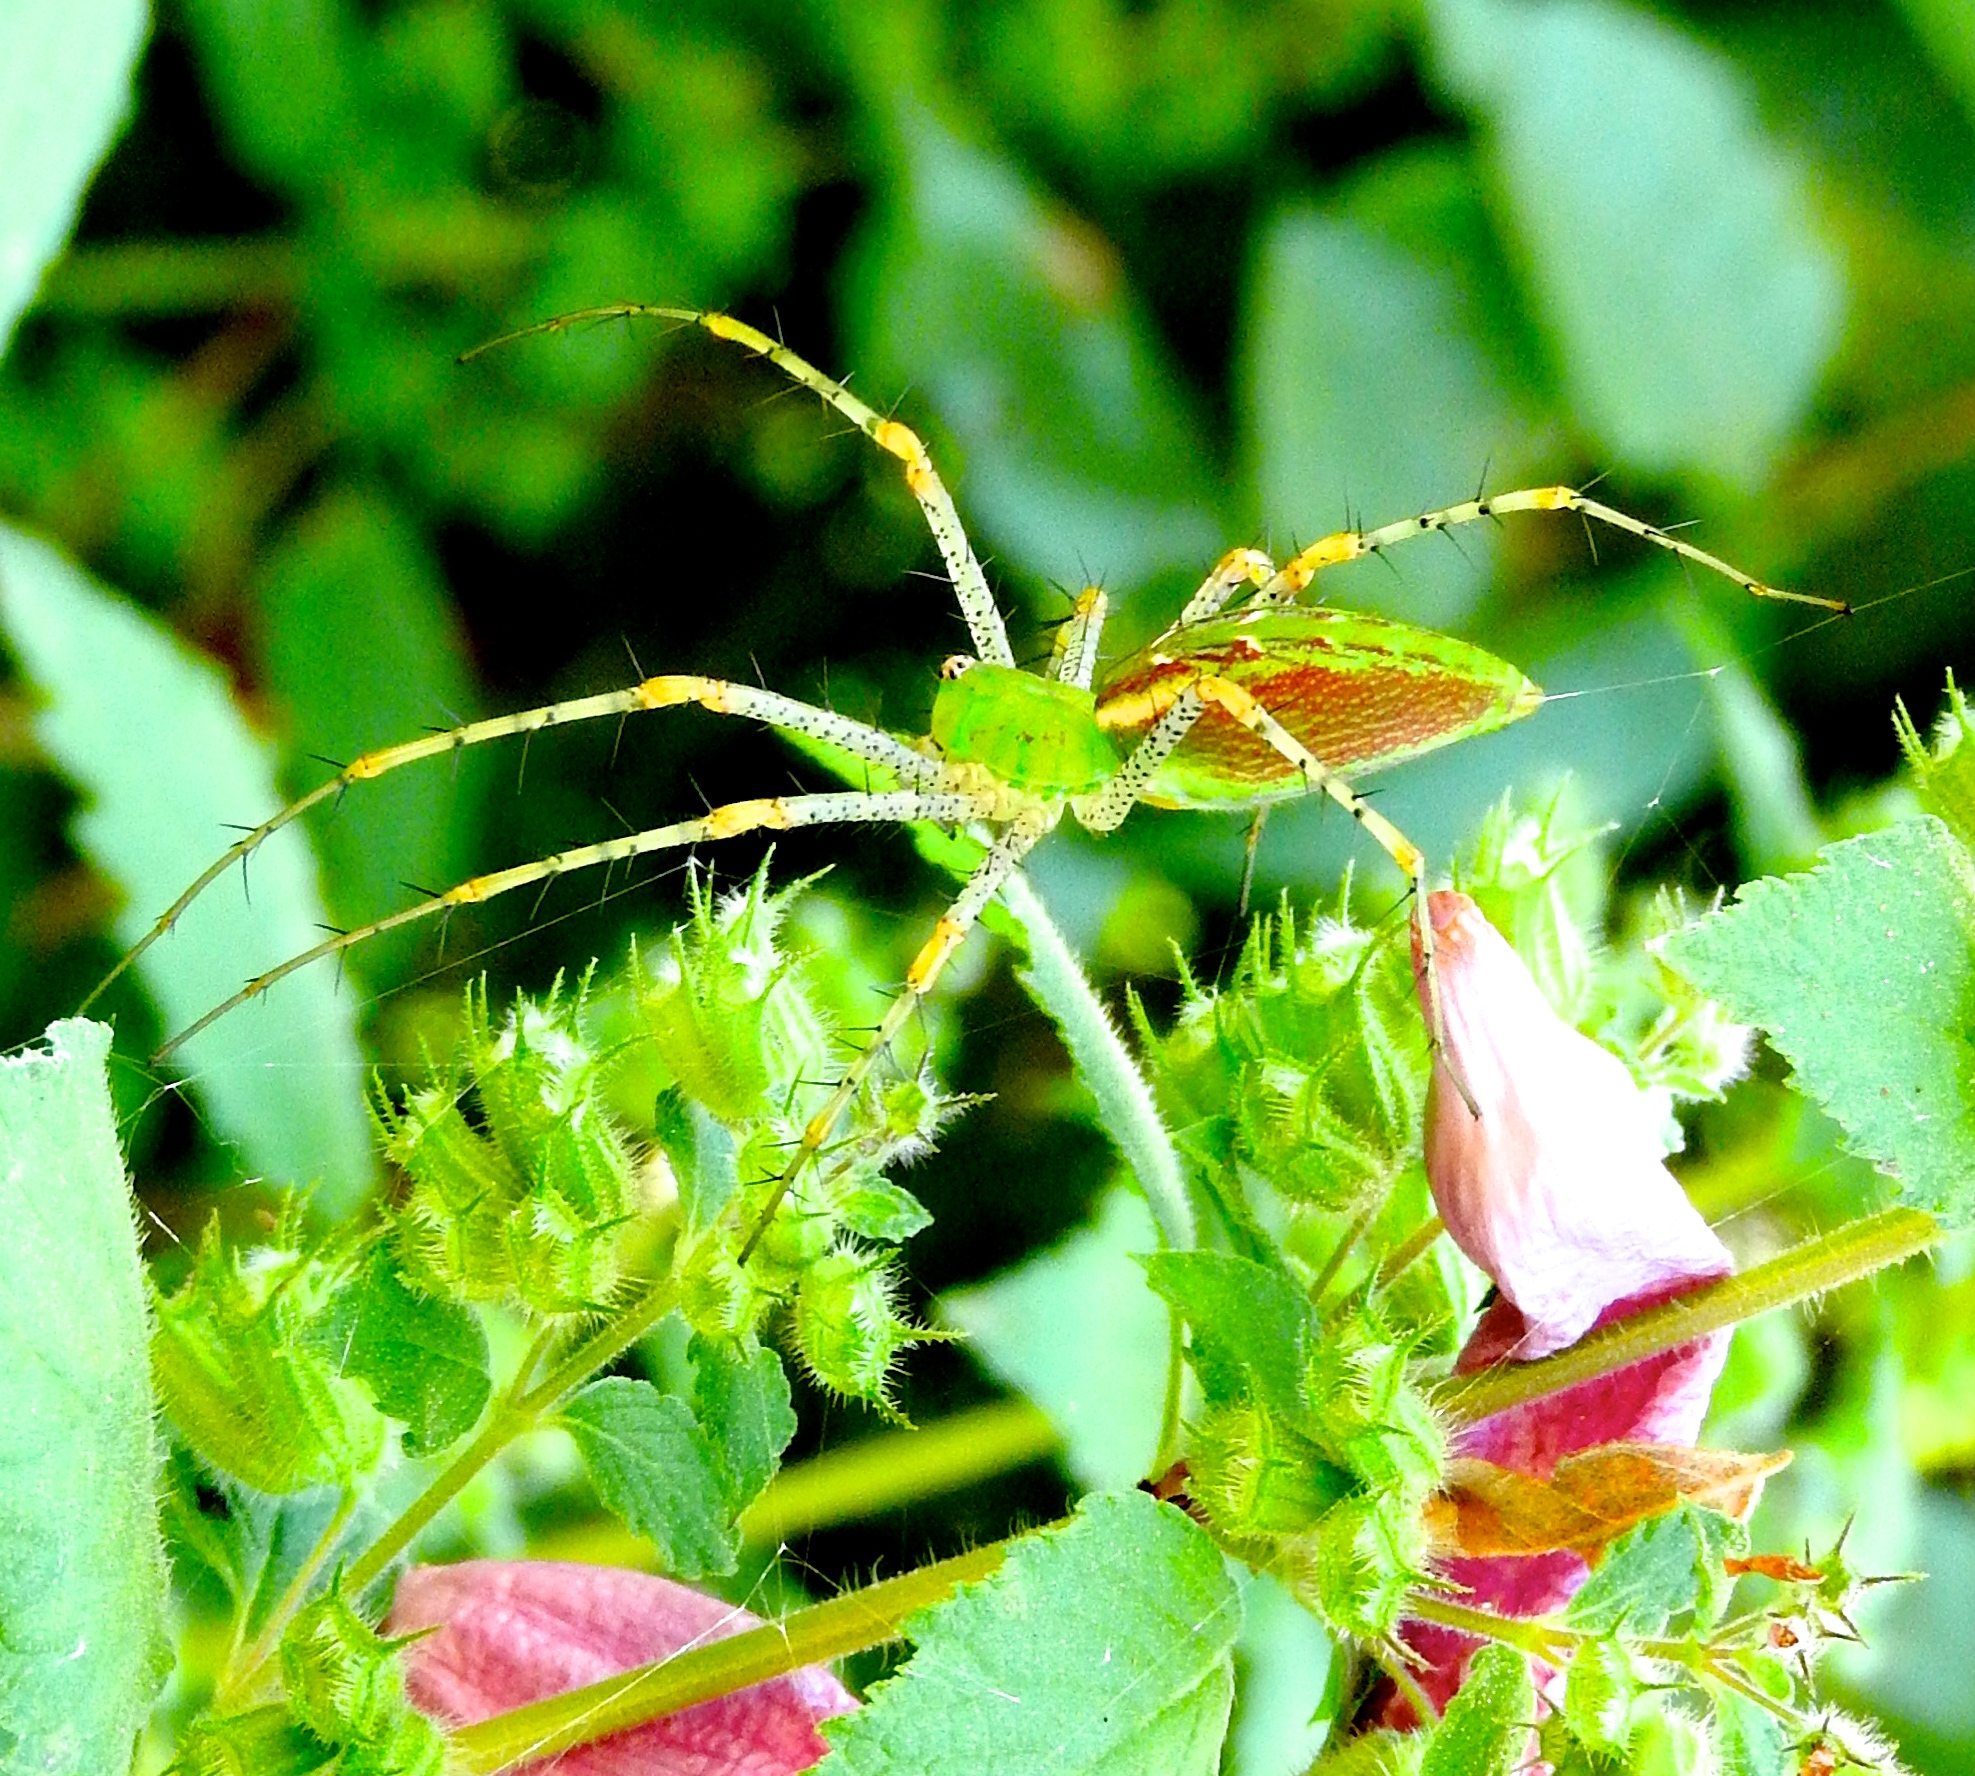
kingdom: Animalia
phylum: Arthropoda
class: Arachnida
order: Araneae
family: Oxyopidae
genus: Peucetia
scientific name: Peucetia viridans
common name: Lynx spiders
